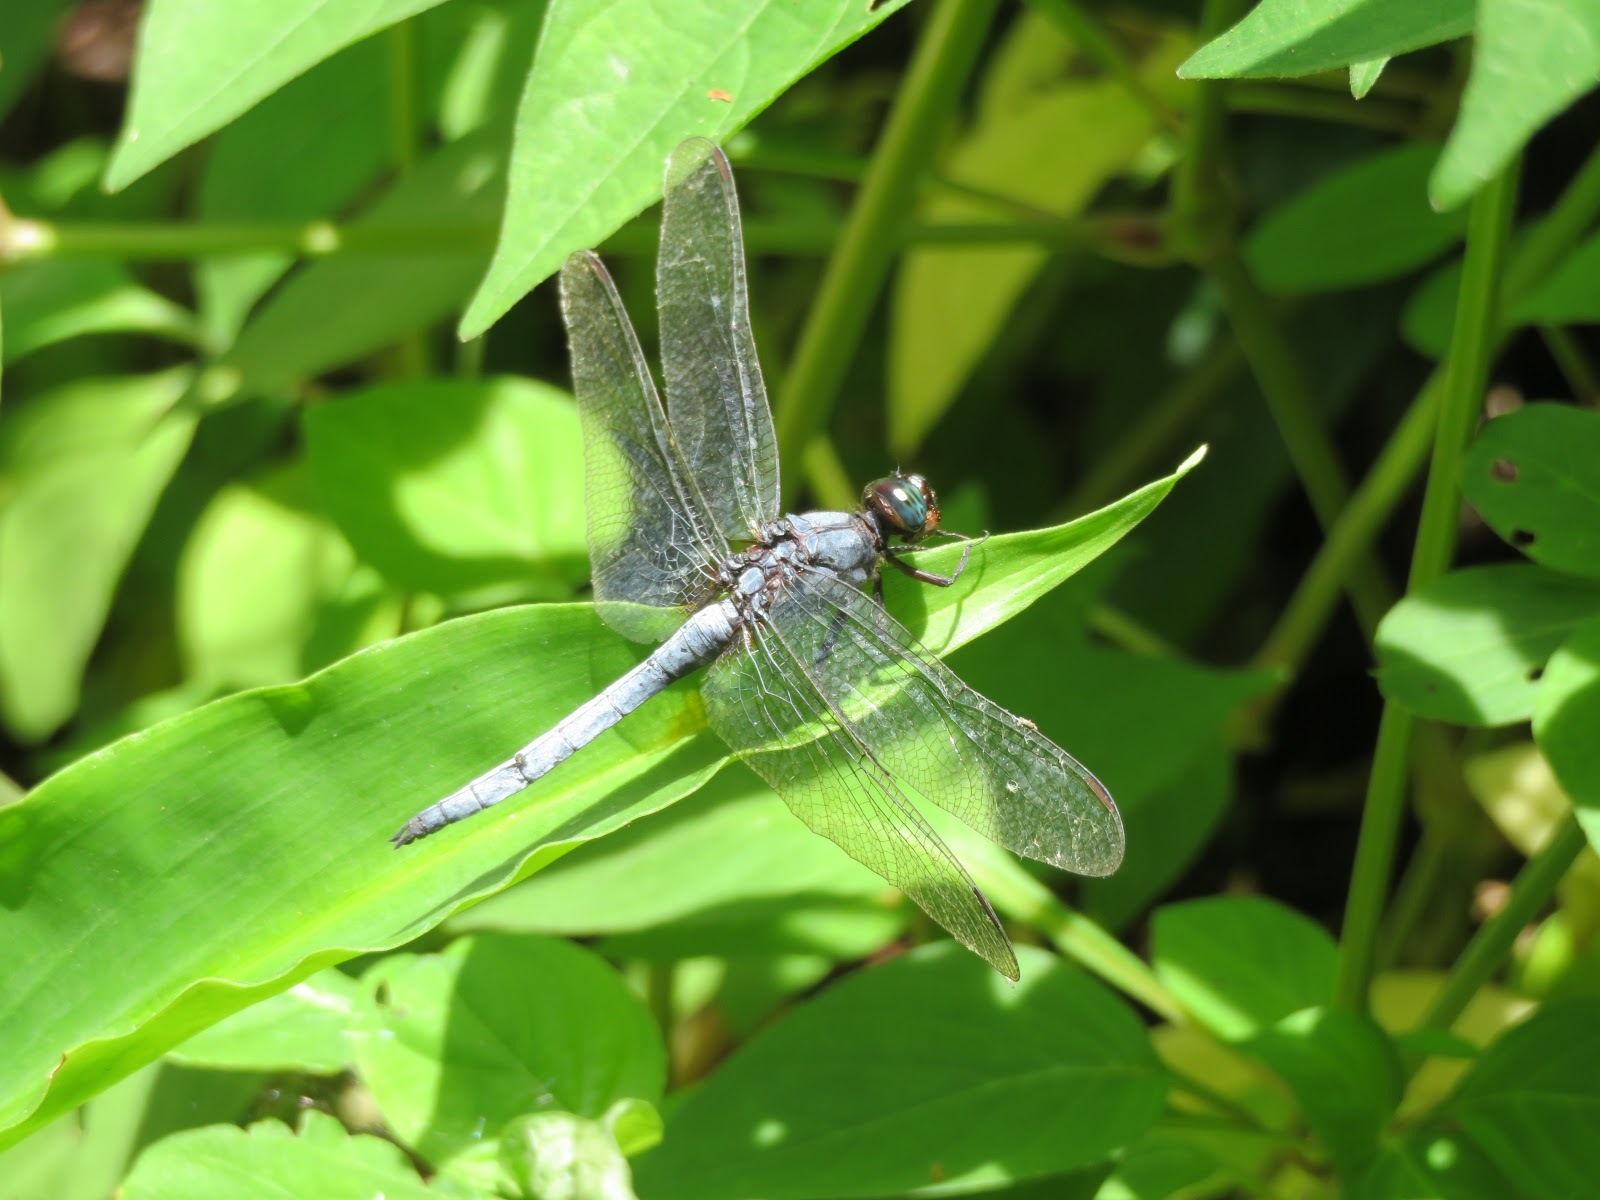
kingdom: Animalia
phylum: Arthropoda
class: Insecta
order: Odonata
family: Libellulidae
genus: Orthetrum
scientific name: Orthetrum glaucum
